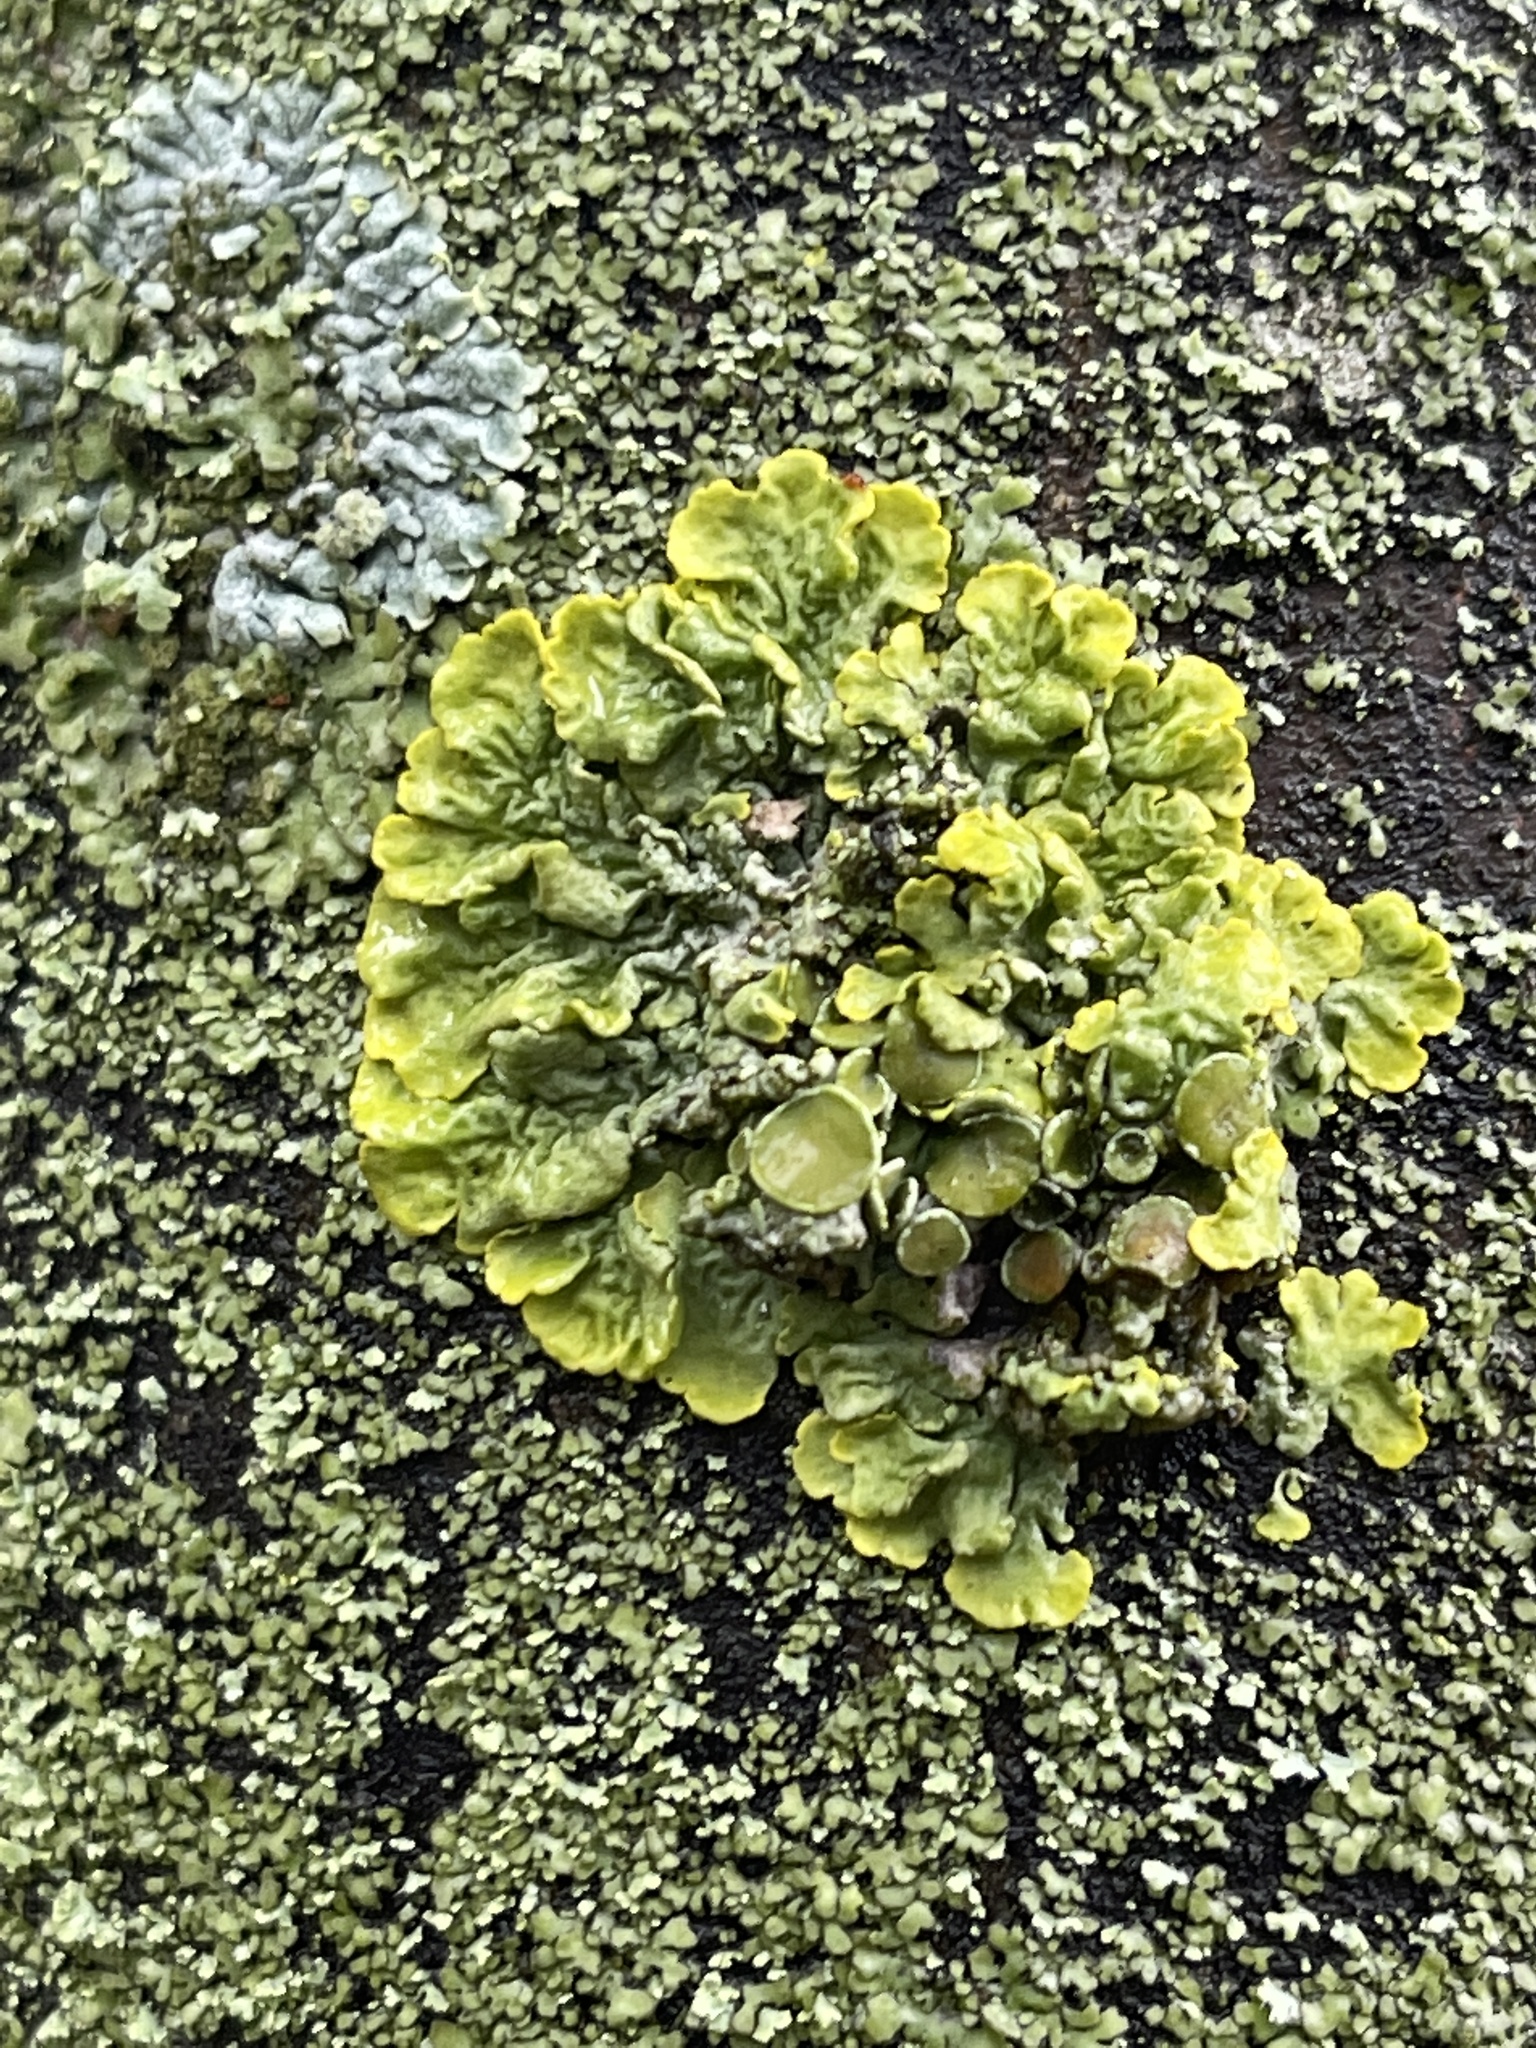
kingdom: Fungi
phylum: Ascomycota
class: Lecanoromycetes
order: Teloschistales
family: Teloschistaceae
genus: Xanthoria
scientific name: Xanthoria parietina
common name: Common orange lichen
